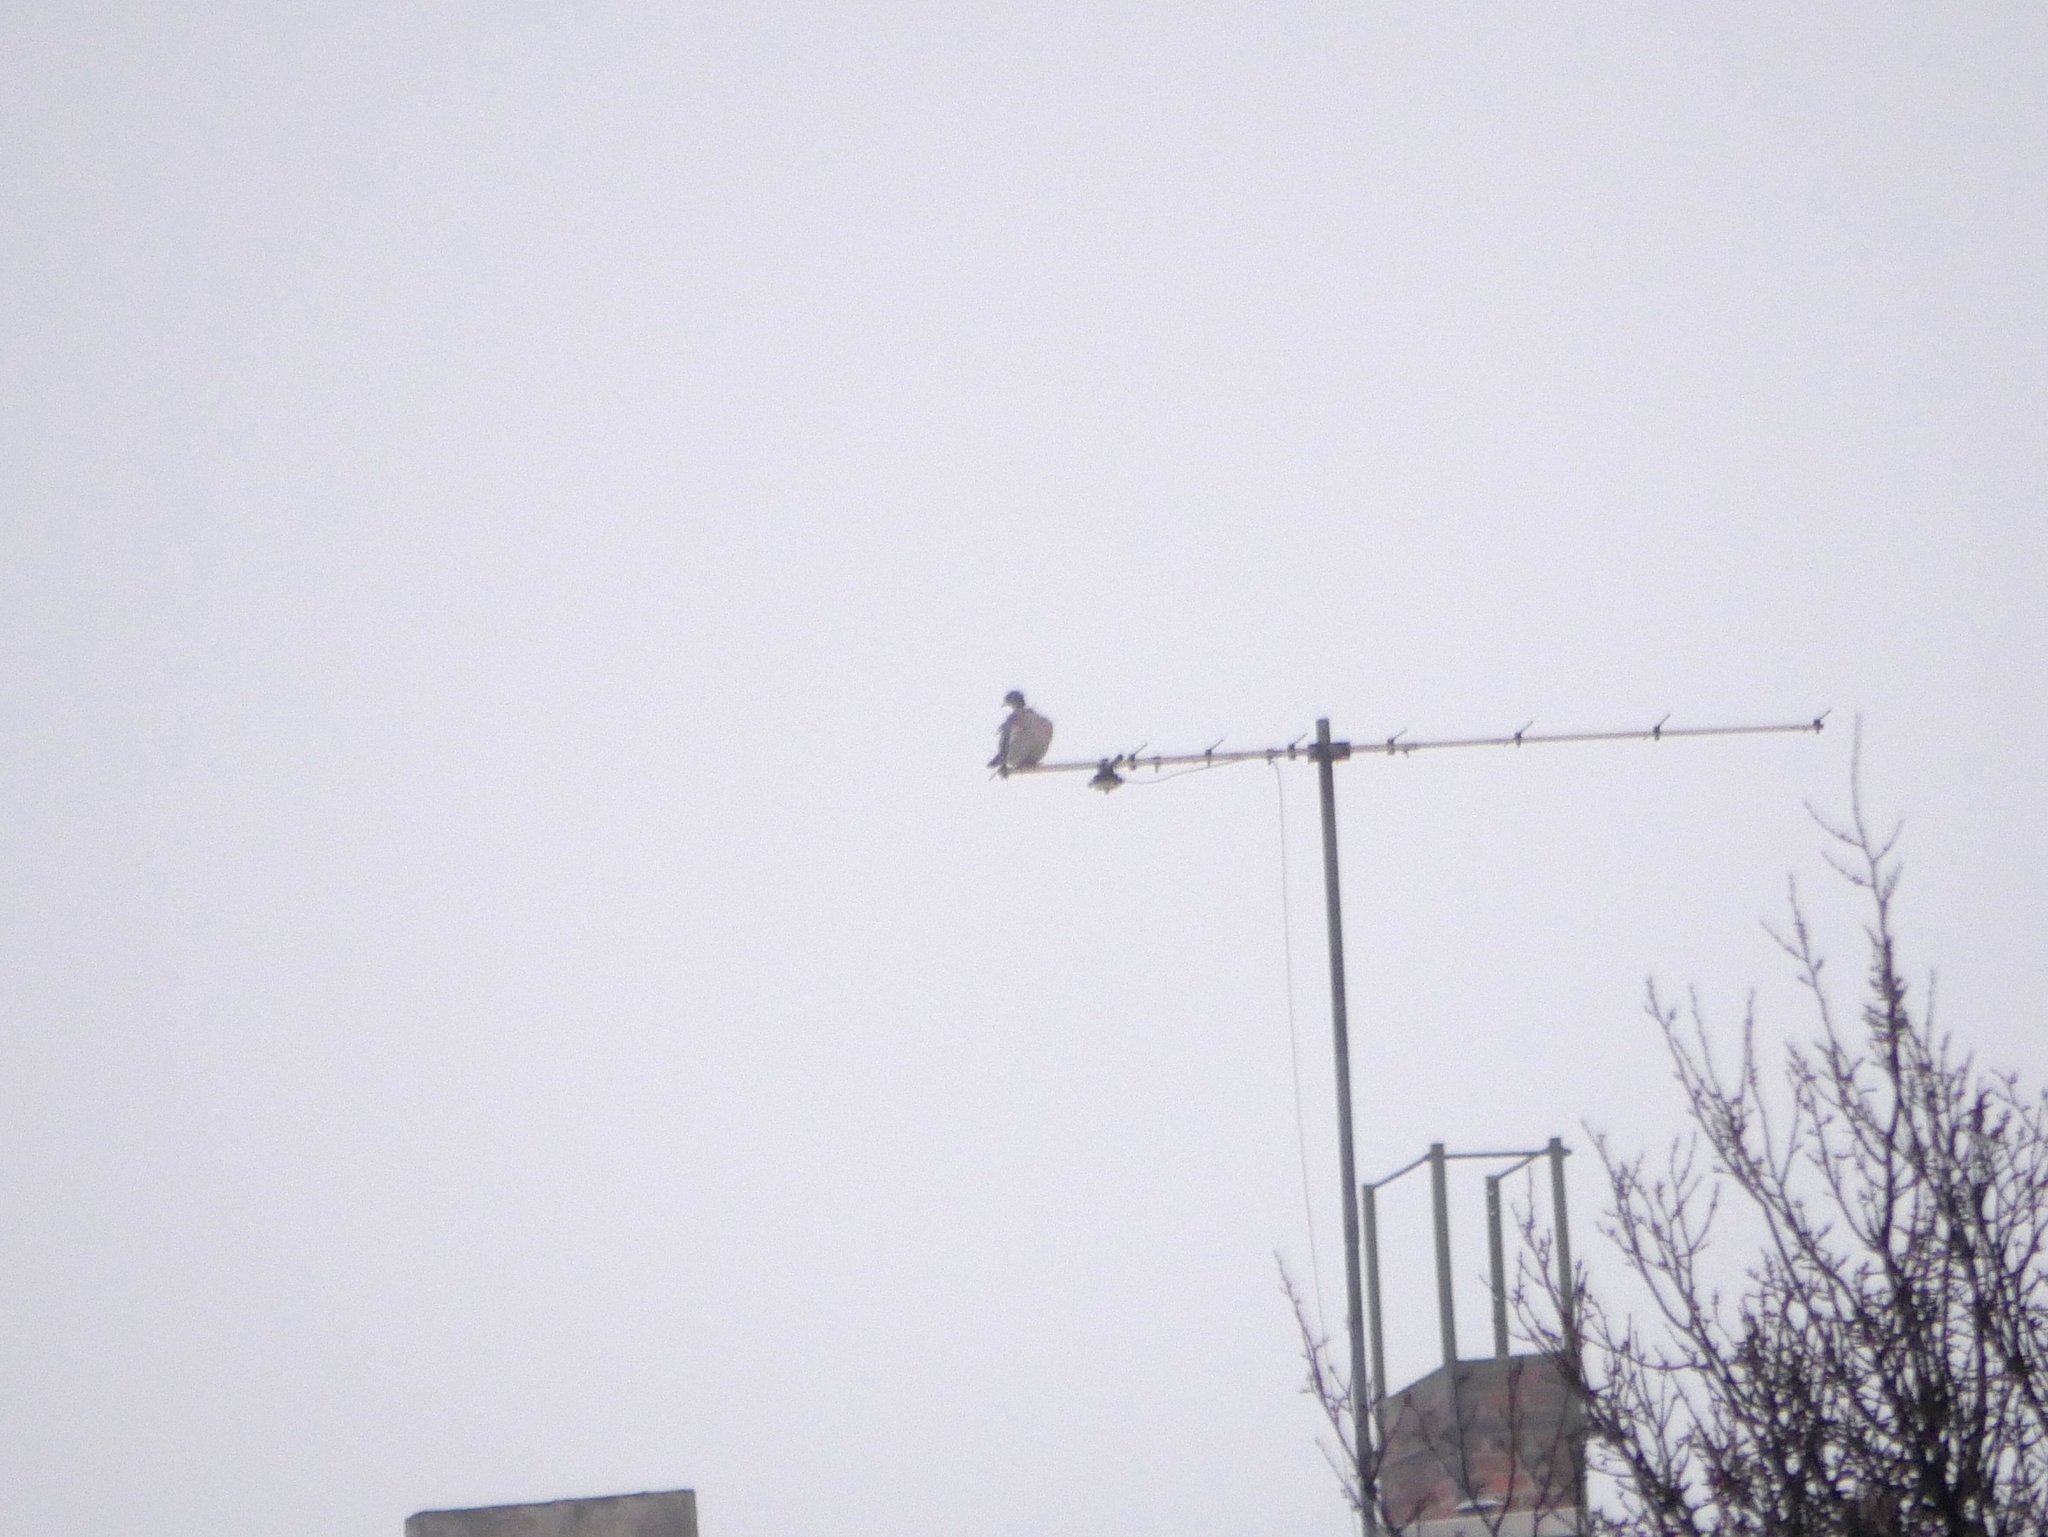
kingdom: Animalia
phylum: Chordata
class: Aves
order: Columbiformes
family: Columbidae
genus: Columba
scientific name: Columba palumbus
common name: Common wood pigeon
